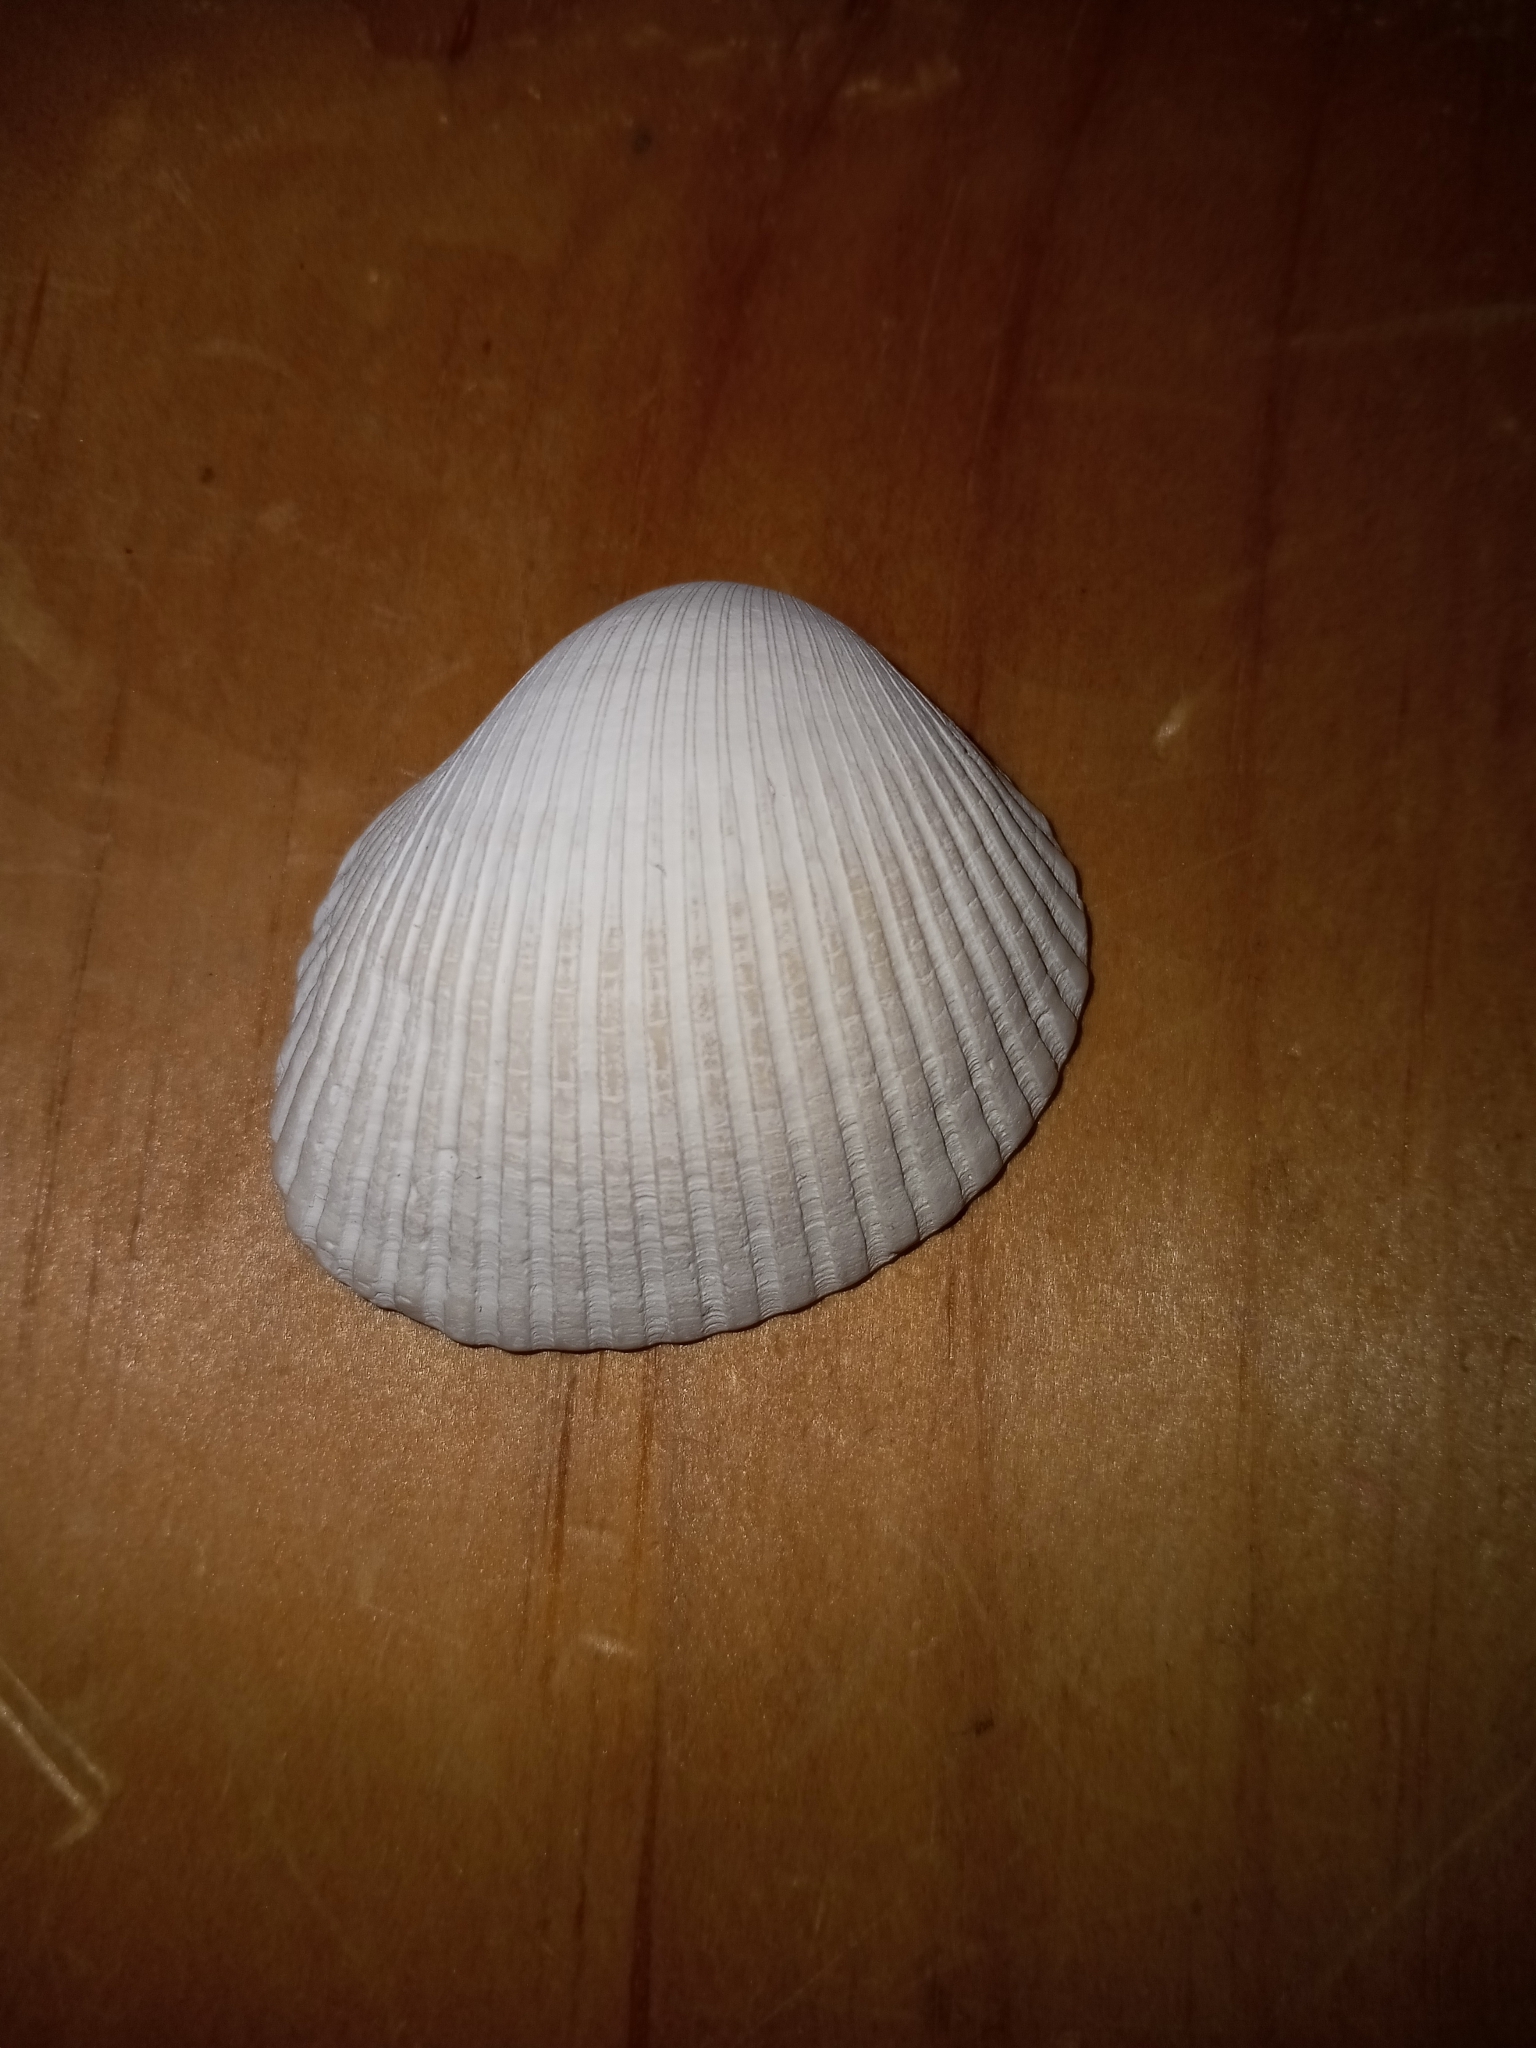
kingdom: Animalia
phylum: Mollusca
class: Bivalvia
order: Arcida
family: Arcidae
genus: Lunarca
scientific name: Lunarca ovalis
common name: Blood ark
